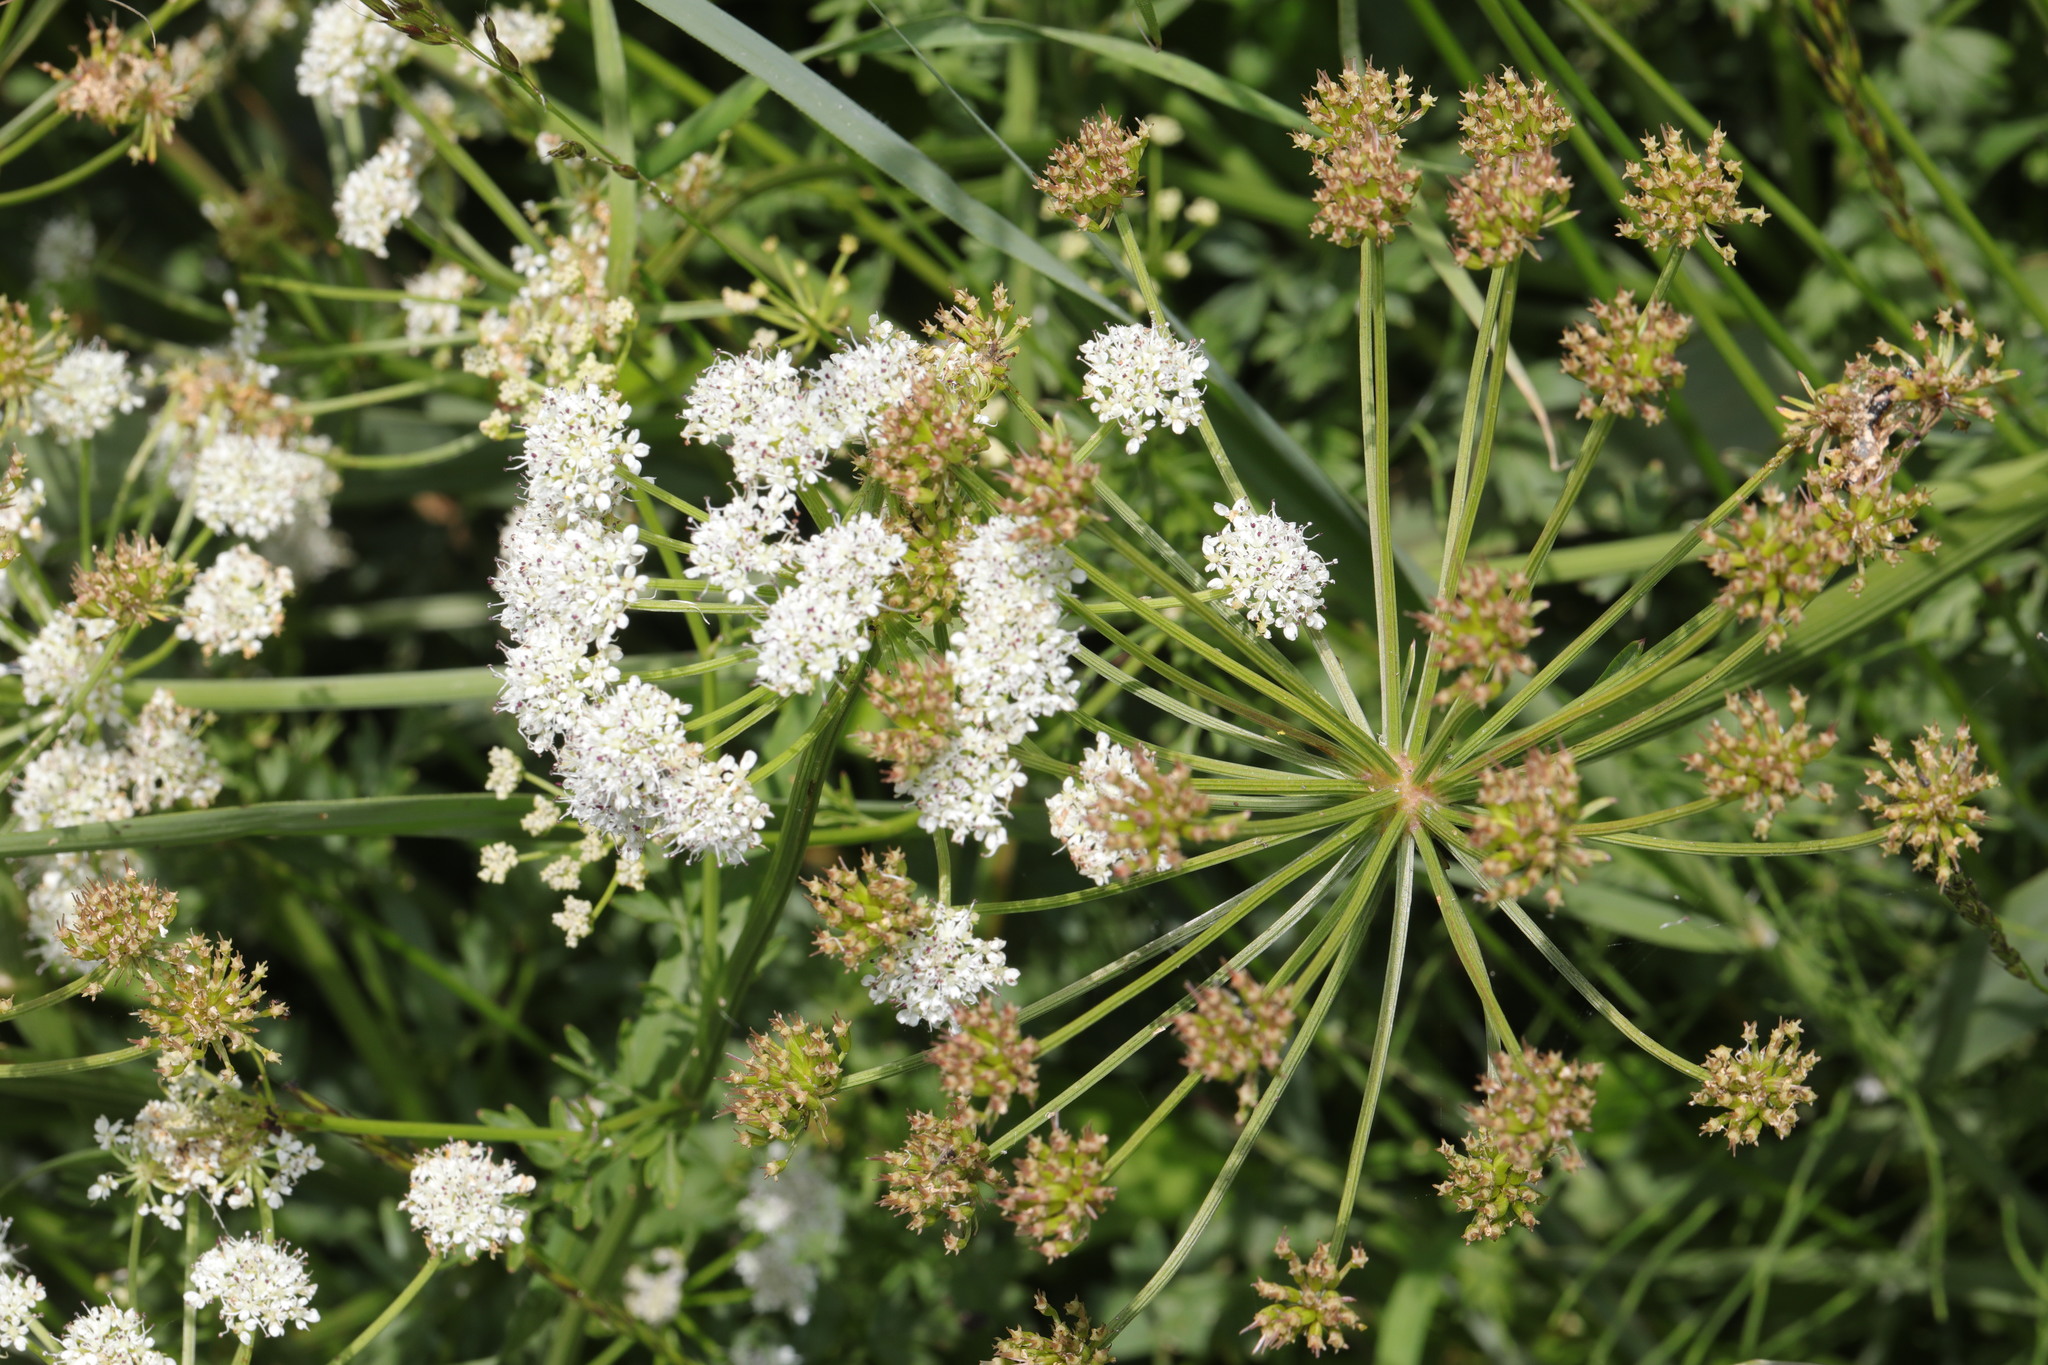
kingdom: Plantae
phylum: Tracheophyta
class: Magnoliopsida
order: Apiales
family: Apiaceae
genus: Oenanthe
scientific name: Oenanthe crocata
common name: Hemlock water-dropwort
